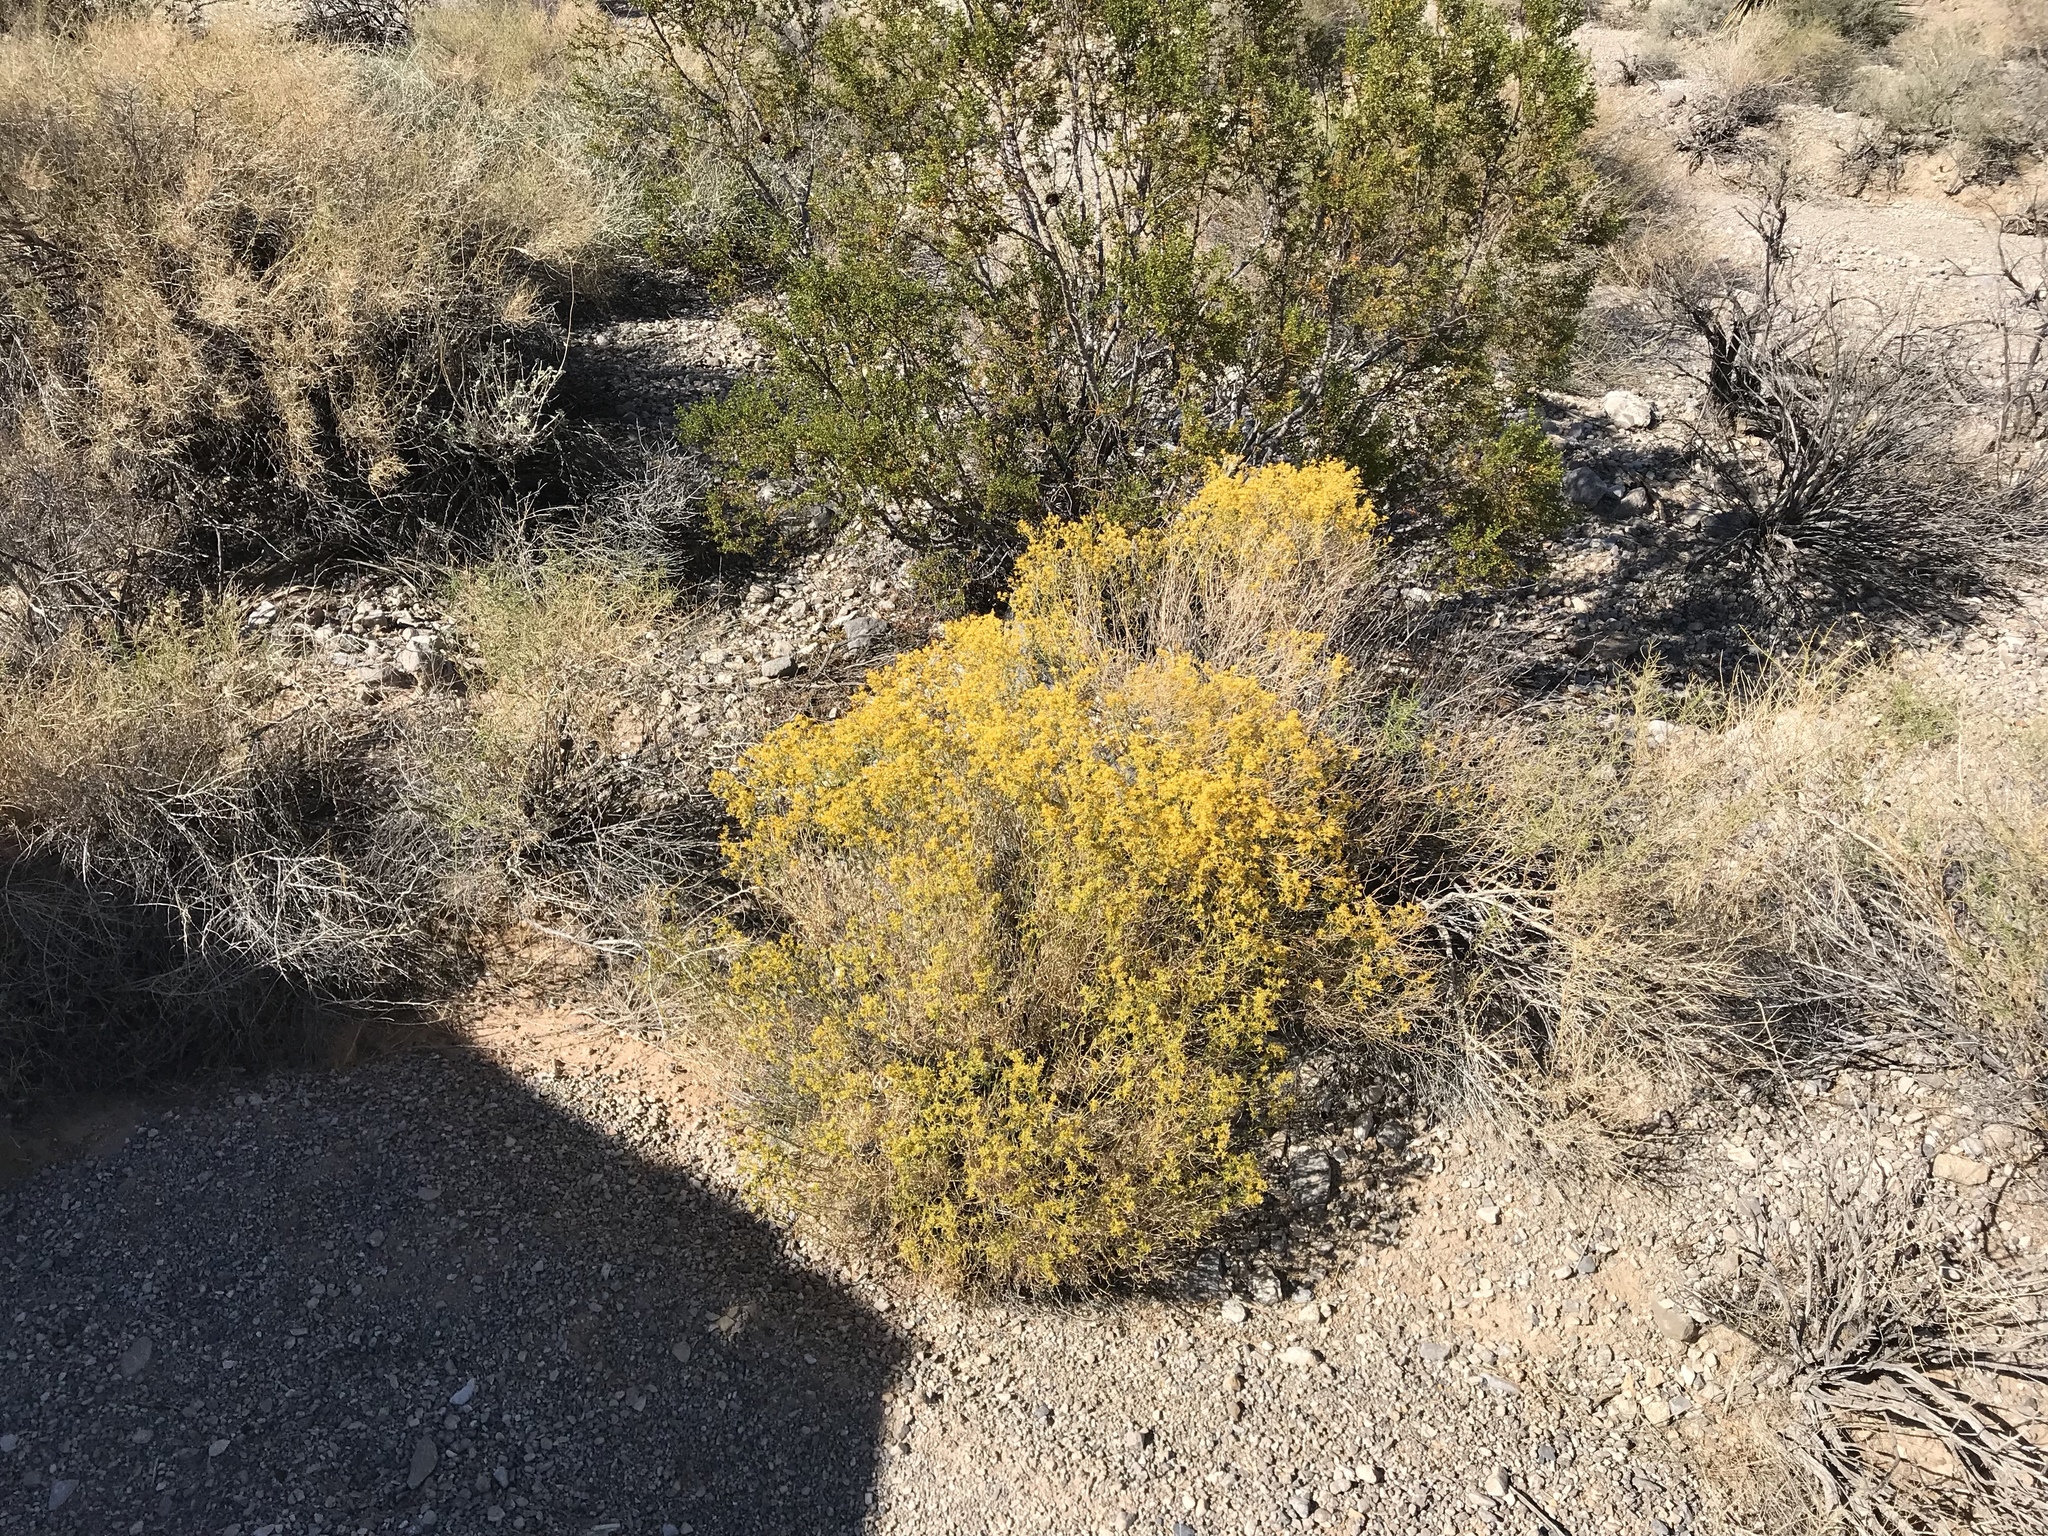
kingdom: Plantae
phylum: Tracheophyta
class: Magnoliopsida
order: Asterales
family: Asteraceae
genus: Gutierrezia
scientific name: Gutierrezia sarothrae
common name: Broom snakeweed
